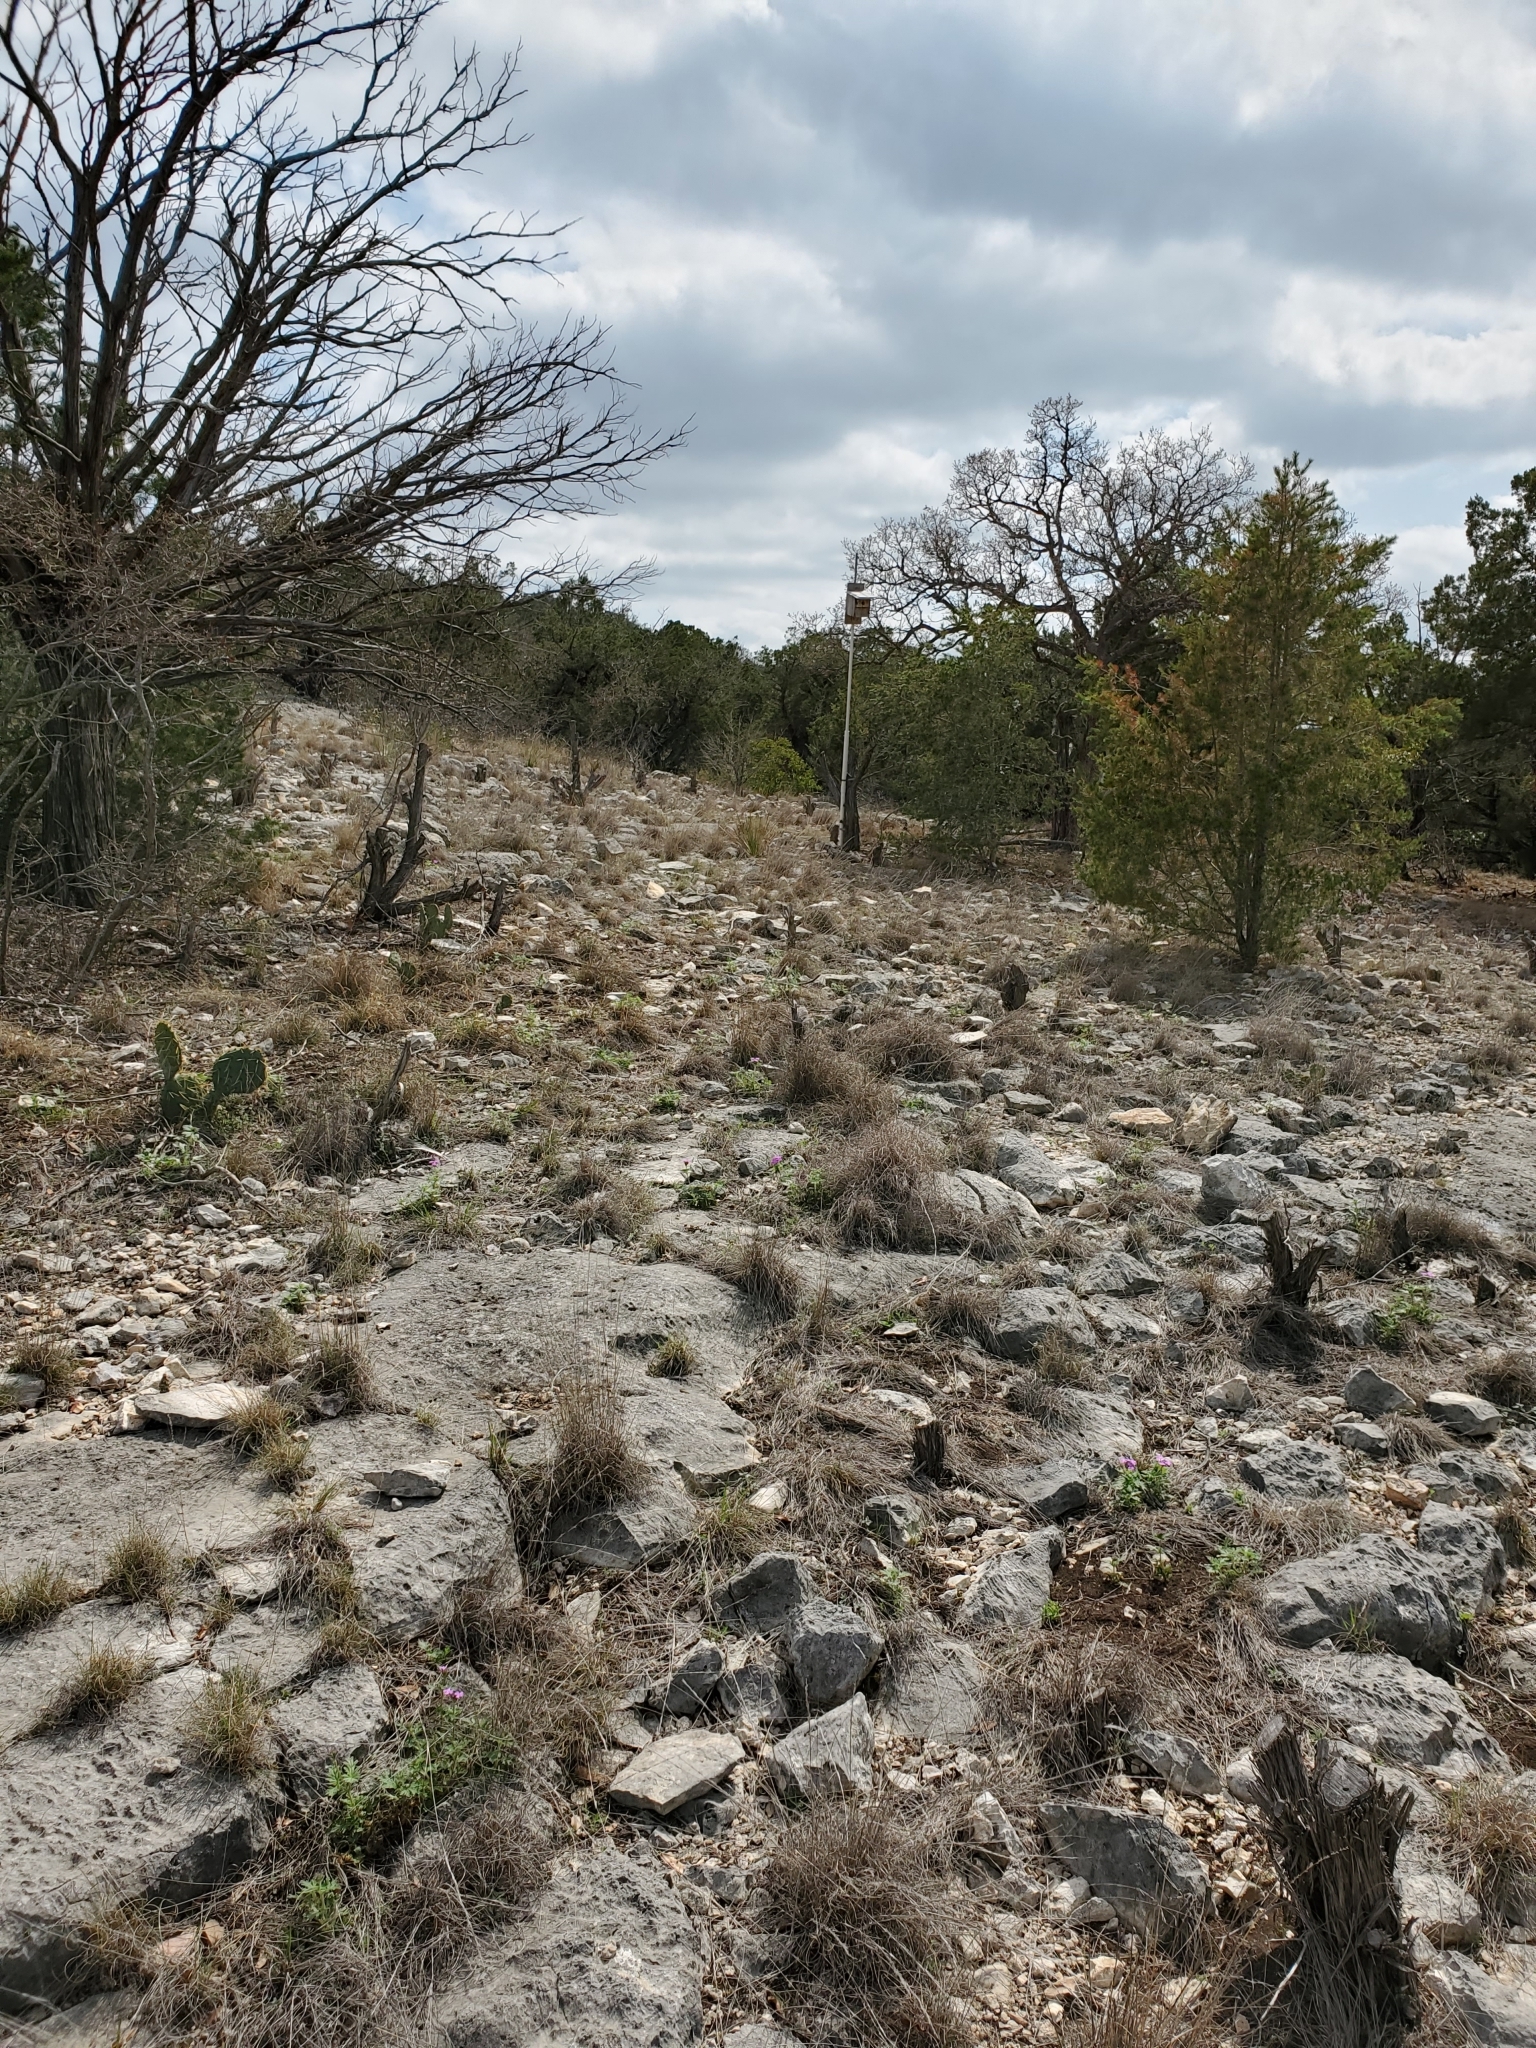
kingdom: Plantae
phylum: Tracheophyta
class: Magnoliopsida
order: Ranunculales
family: Ranunculaceae
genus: Anemone
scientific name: Anemone edwardsiana
